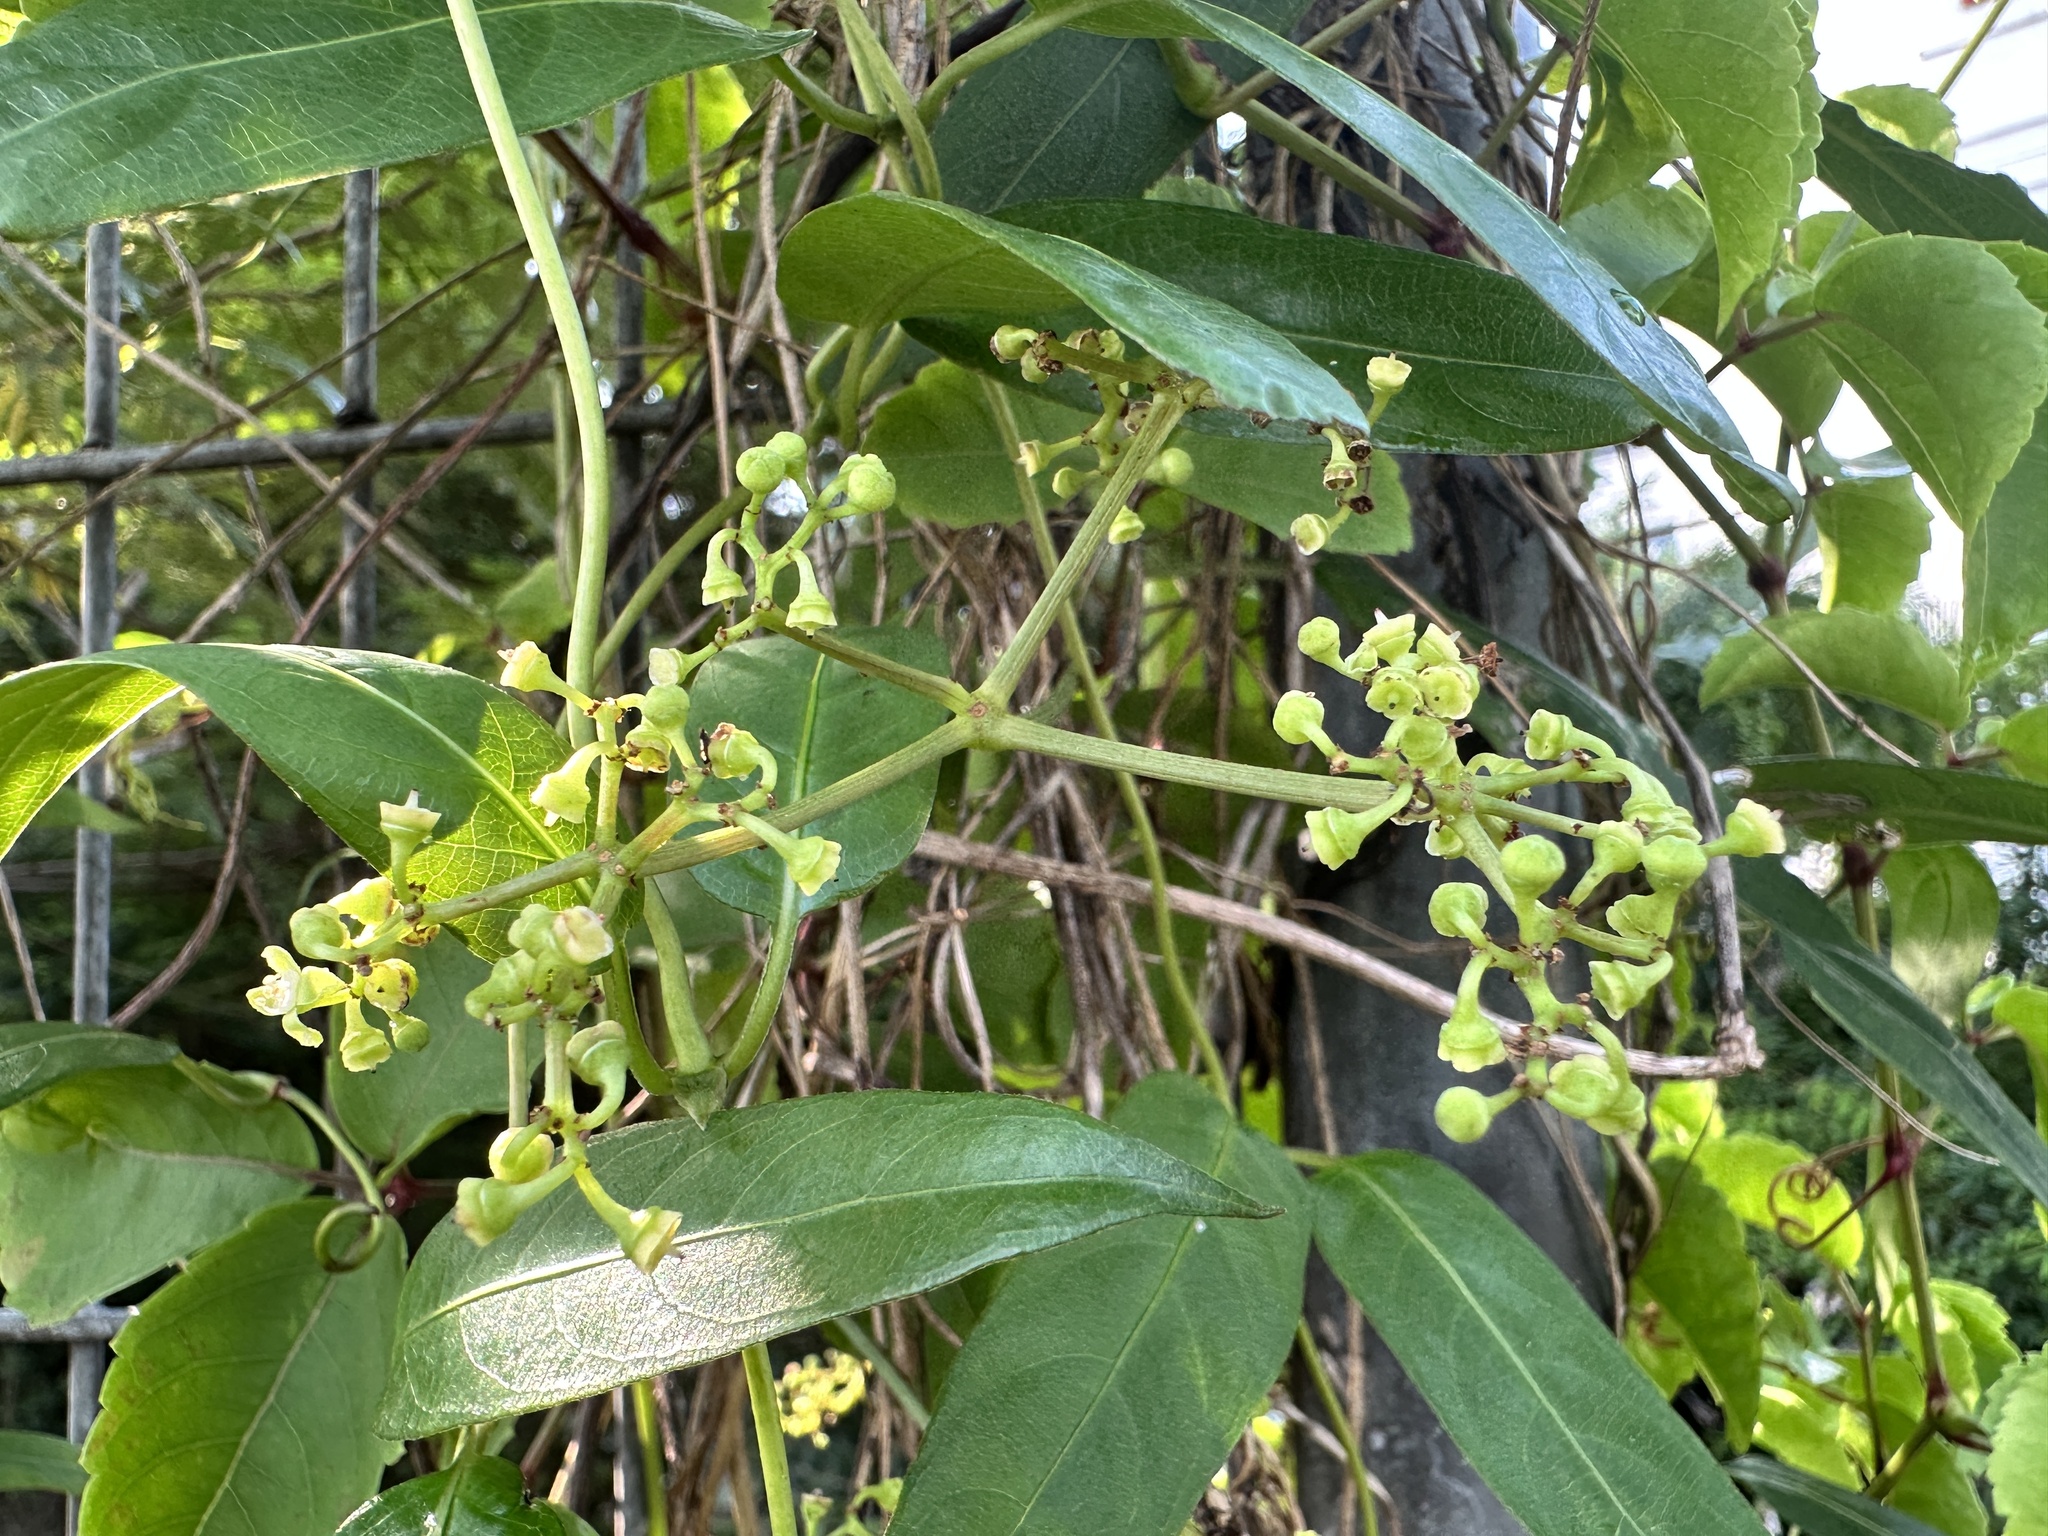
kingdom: Plantae
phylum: Tracheophyta
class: Magnoliopsida
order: Vitales
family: Vitaceae
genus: Causonis
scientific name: Causonis maritima
